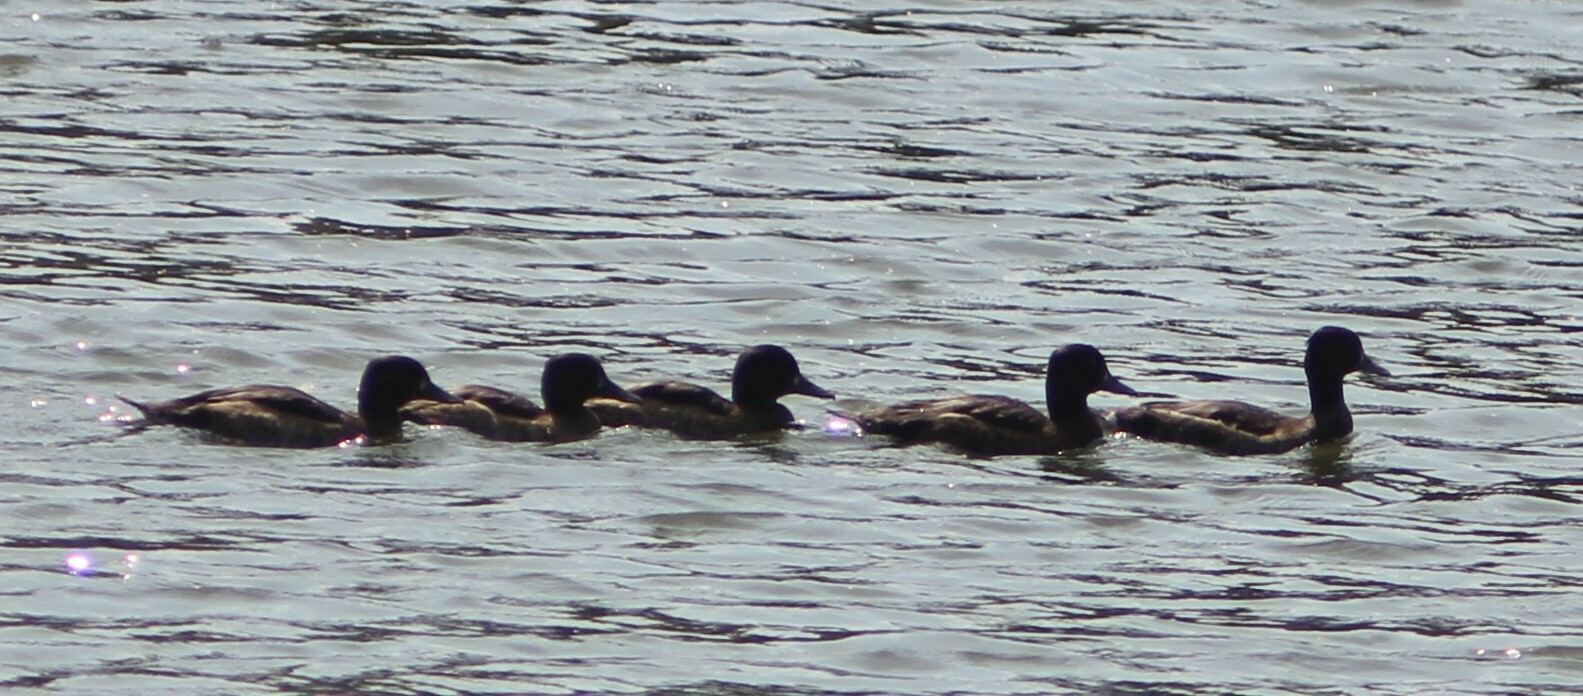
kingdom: Animalia
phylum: Chordata
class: Aves
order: Anseriformes
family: Anatidae
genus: Aythya
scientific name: Aythya fuligula
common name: Tufted duck
